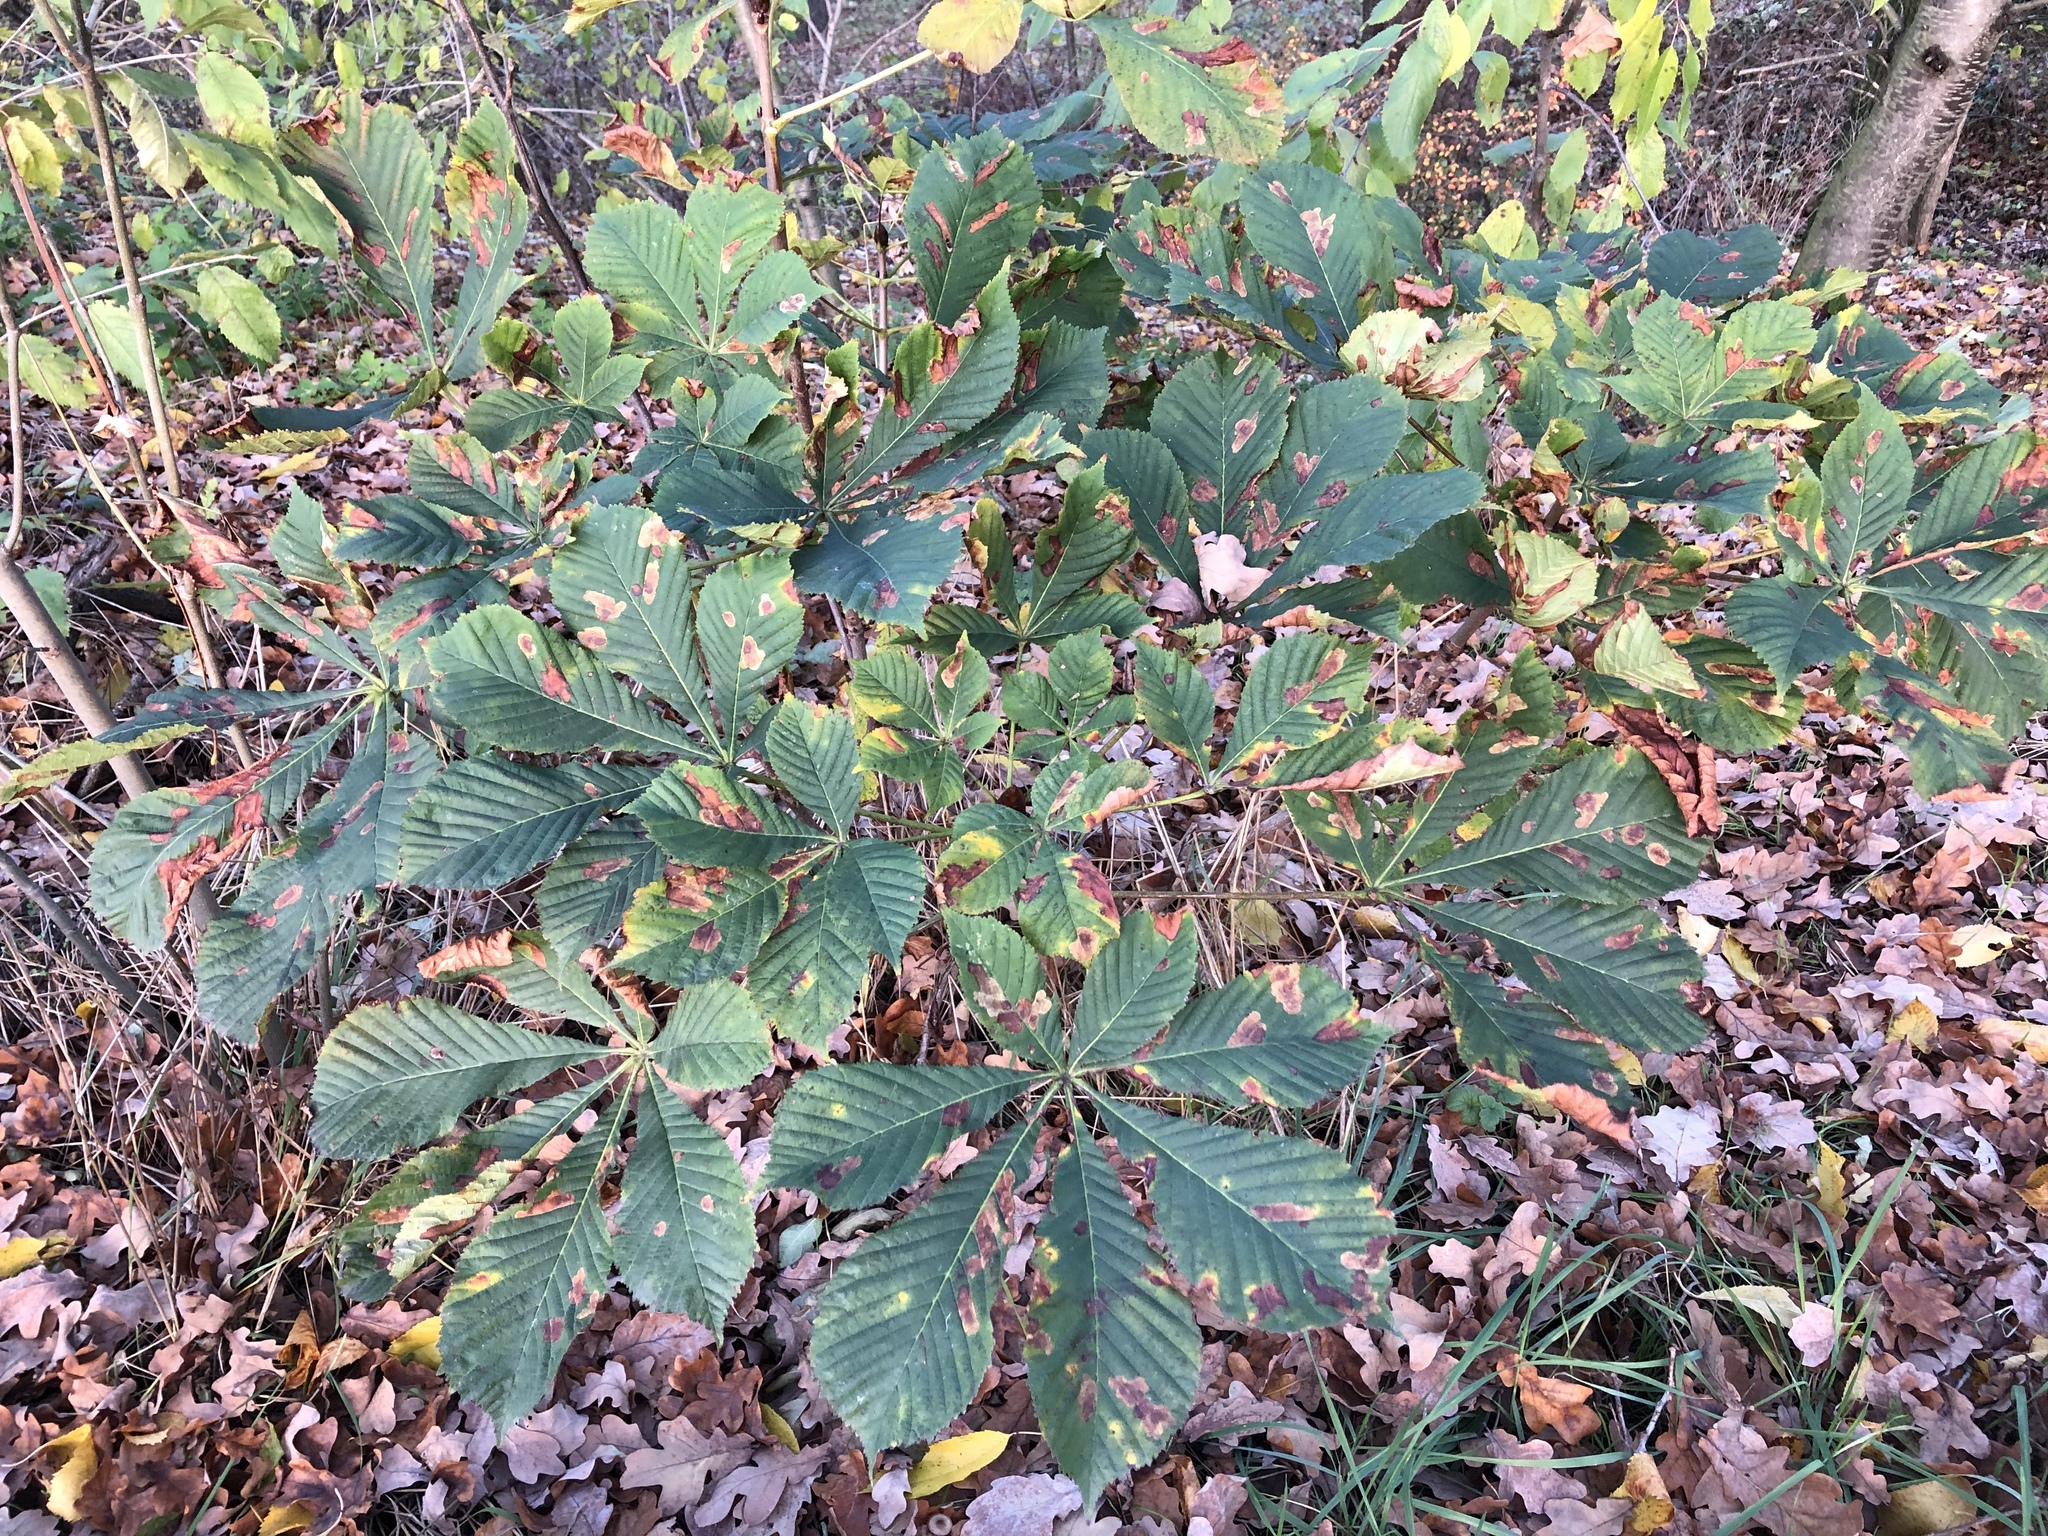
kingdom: Plantae
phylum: Tracheophyta
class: Magnoliopsida
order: Sapindales
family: Sapindaceae
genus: Aesculus
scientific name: Aesculus hippocastanum
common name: Horse-chestnut
